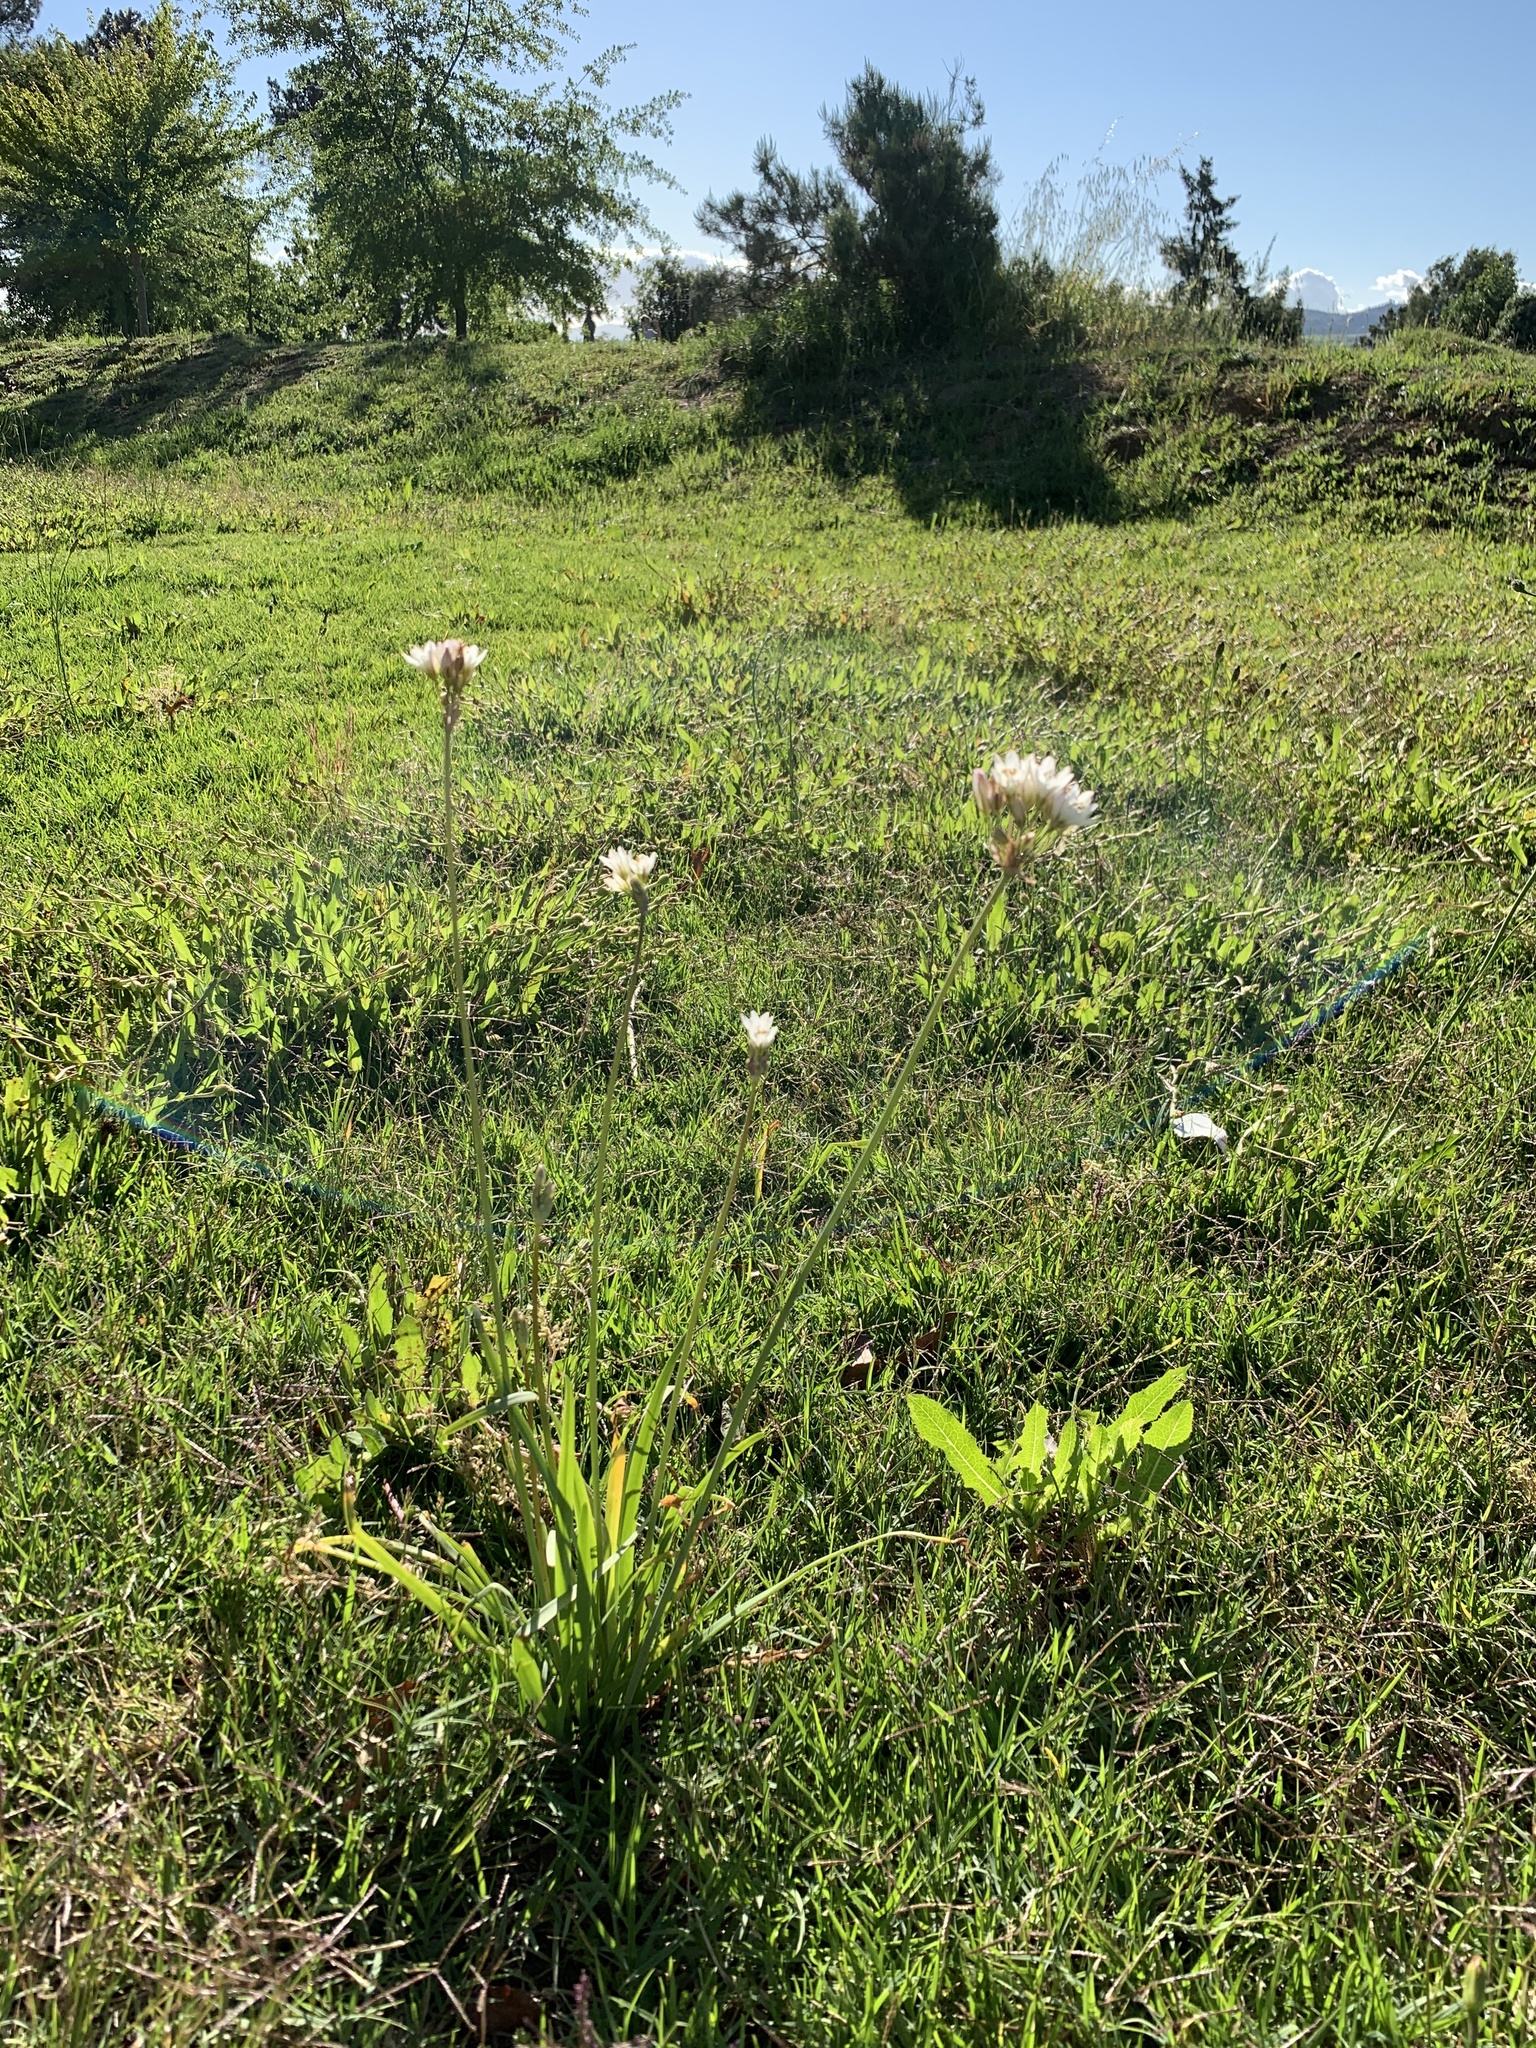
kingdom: Plantae
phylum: Tracheophyta
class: Liliopsida
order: Asparagales
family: Amaryllidaceae
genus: Nothoscordum
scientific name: Nothoscordum gracile
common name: Slender false garlic
